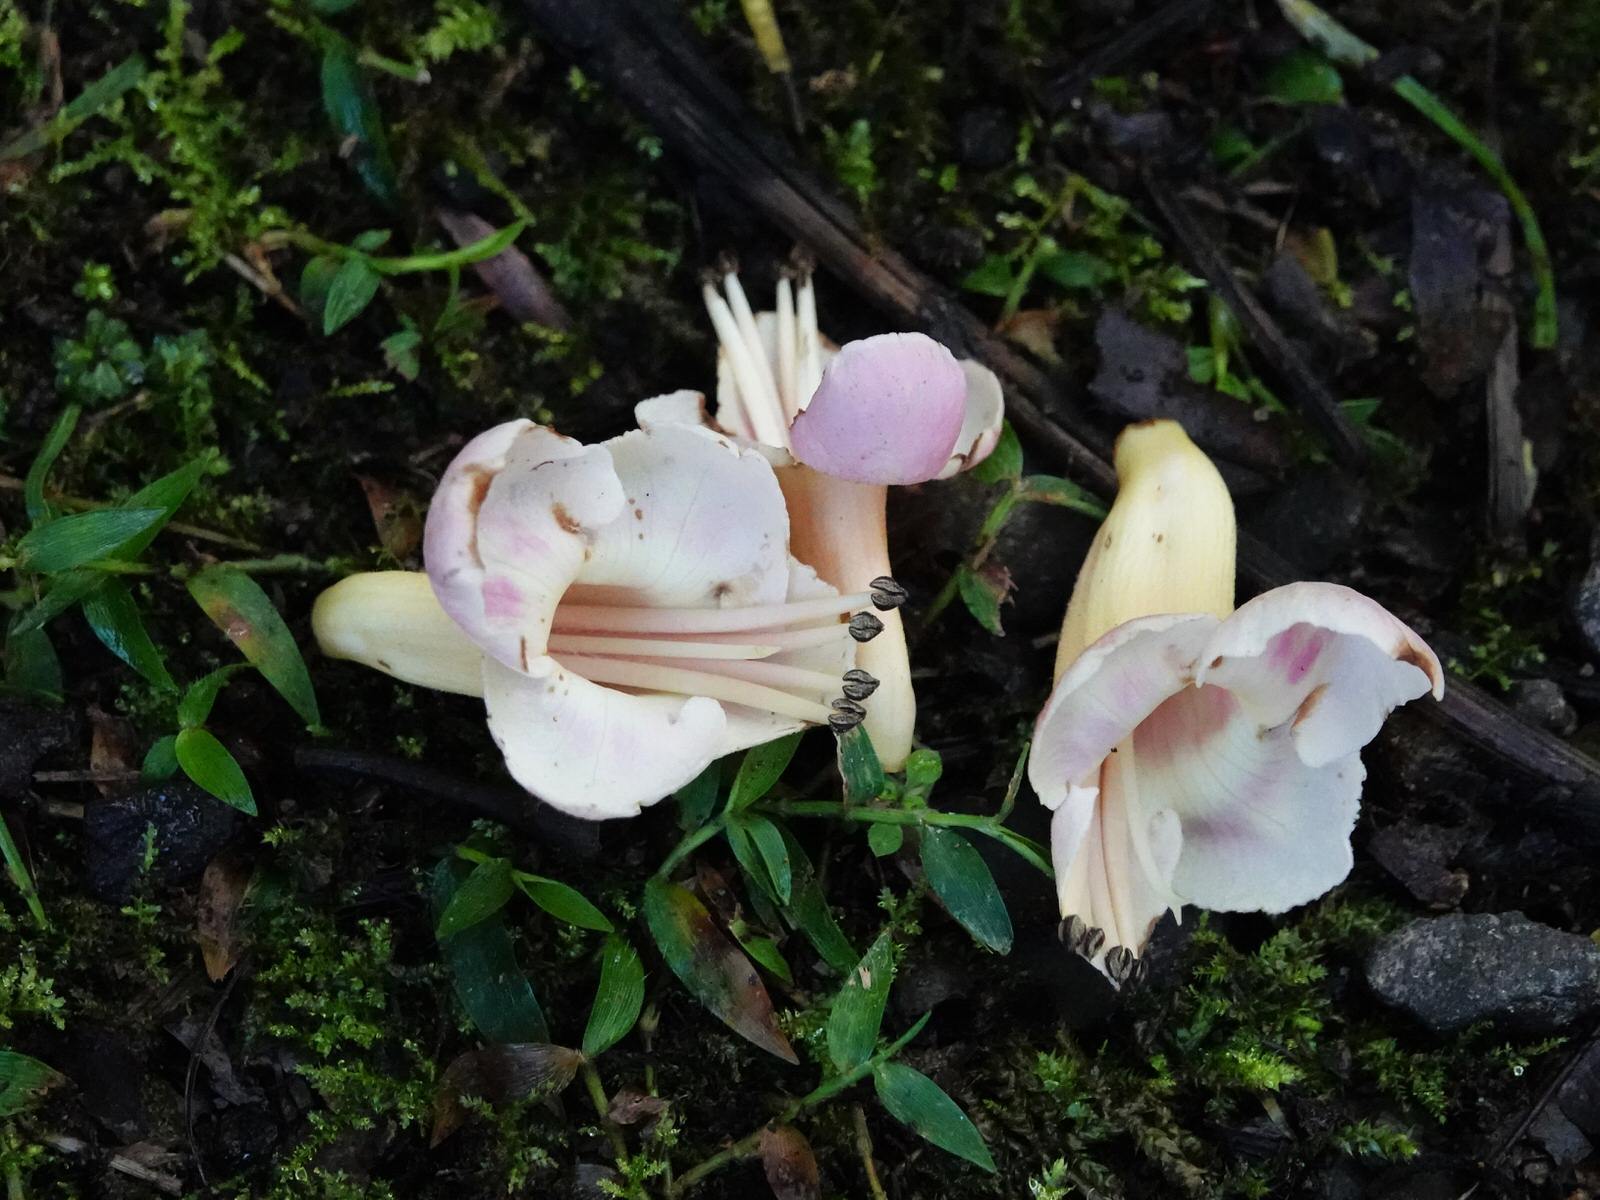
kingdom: Plantae
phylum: Tracheophyta
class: Magnoliopsida
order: Lamiales
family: Lamiaceae
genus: Vitex
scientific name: Vitex lucens
